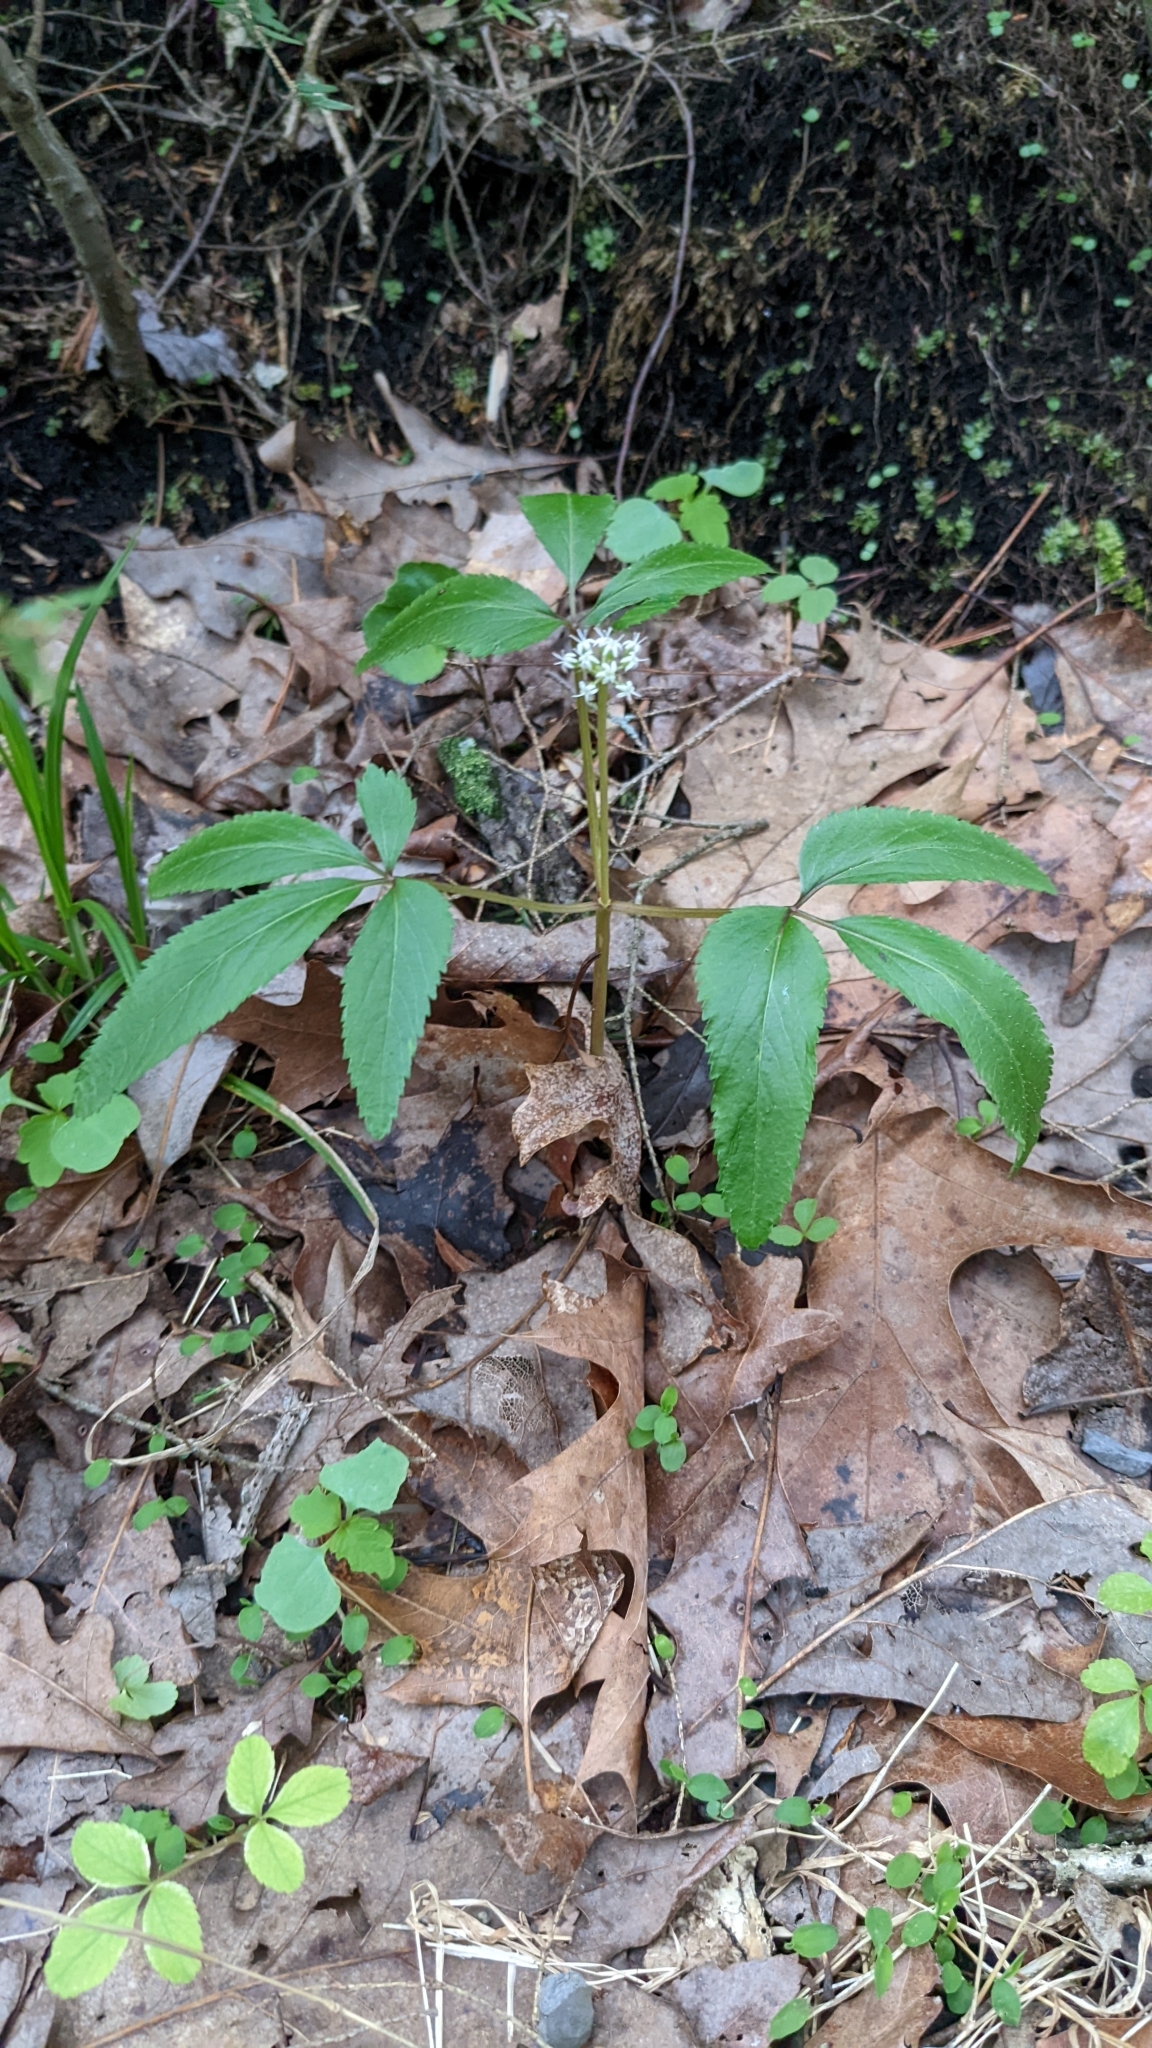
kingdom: Plantae
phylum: Tracheophyta
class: Magnoliopsida
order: Apiales
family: Araliaceae
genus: Panax
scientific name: Panax trifolius
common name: Dwarf ginseng
